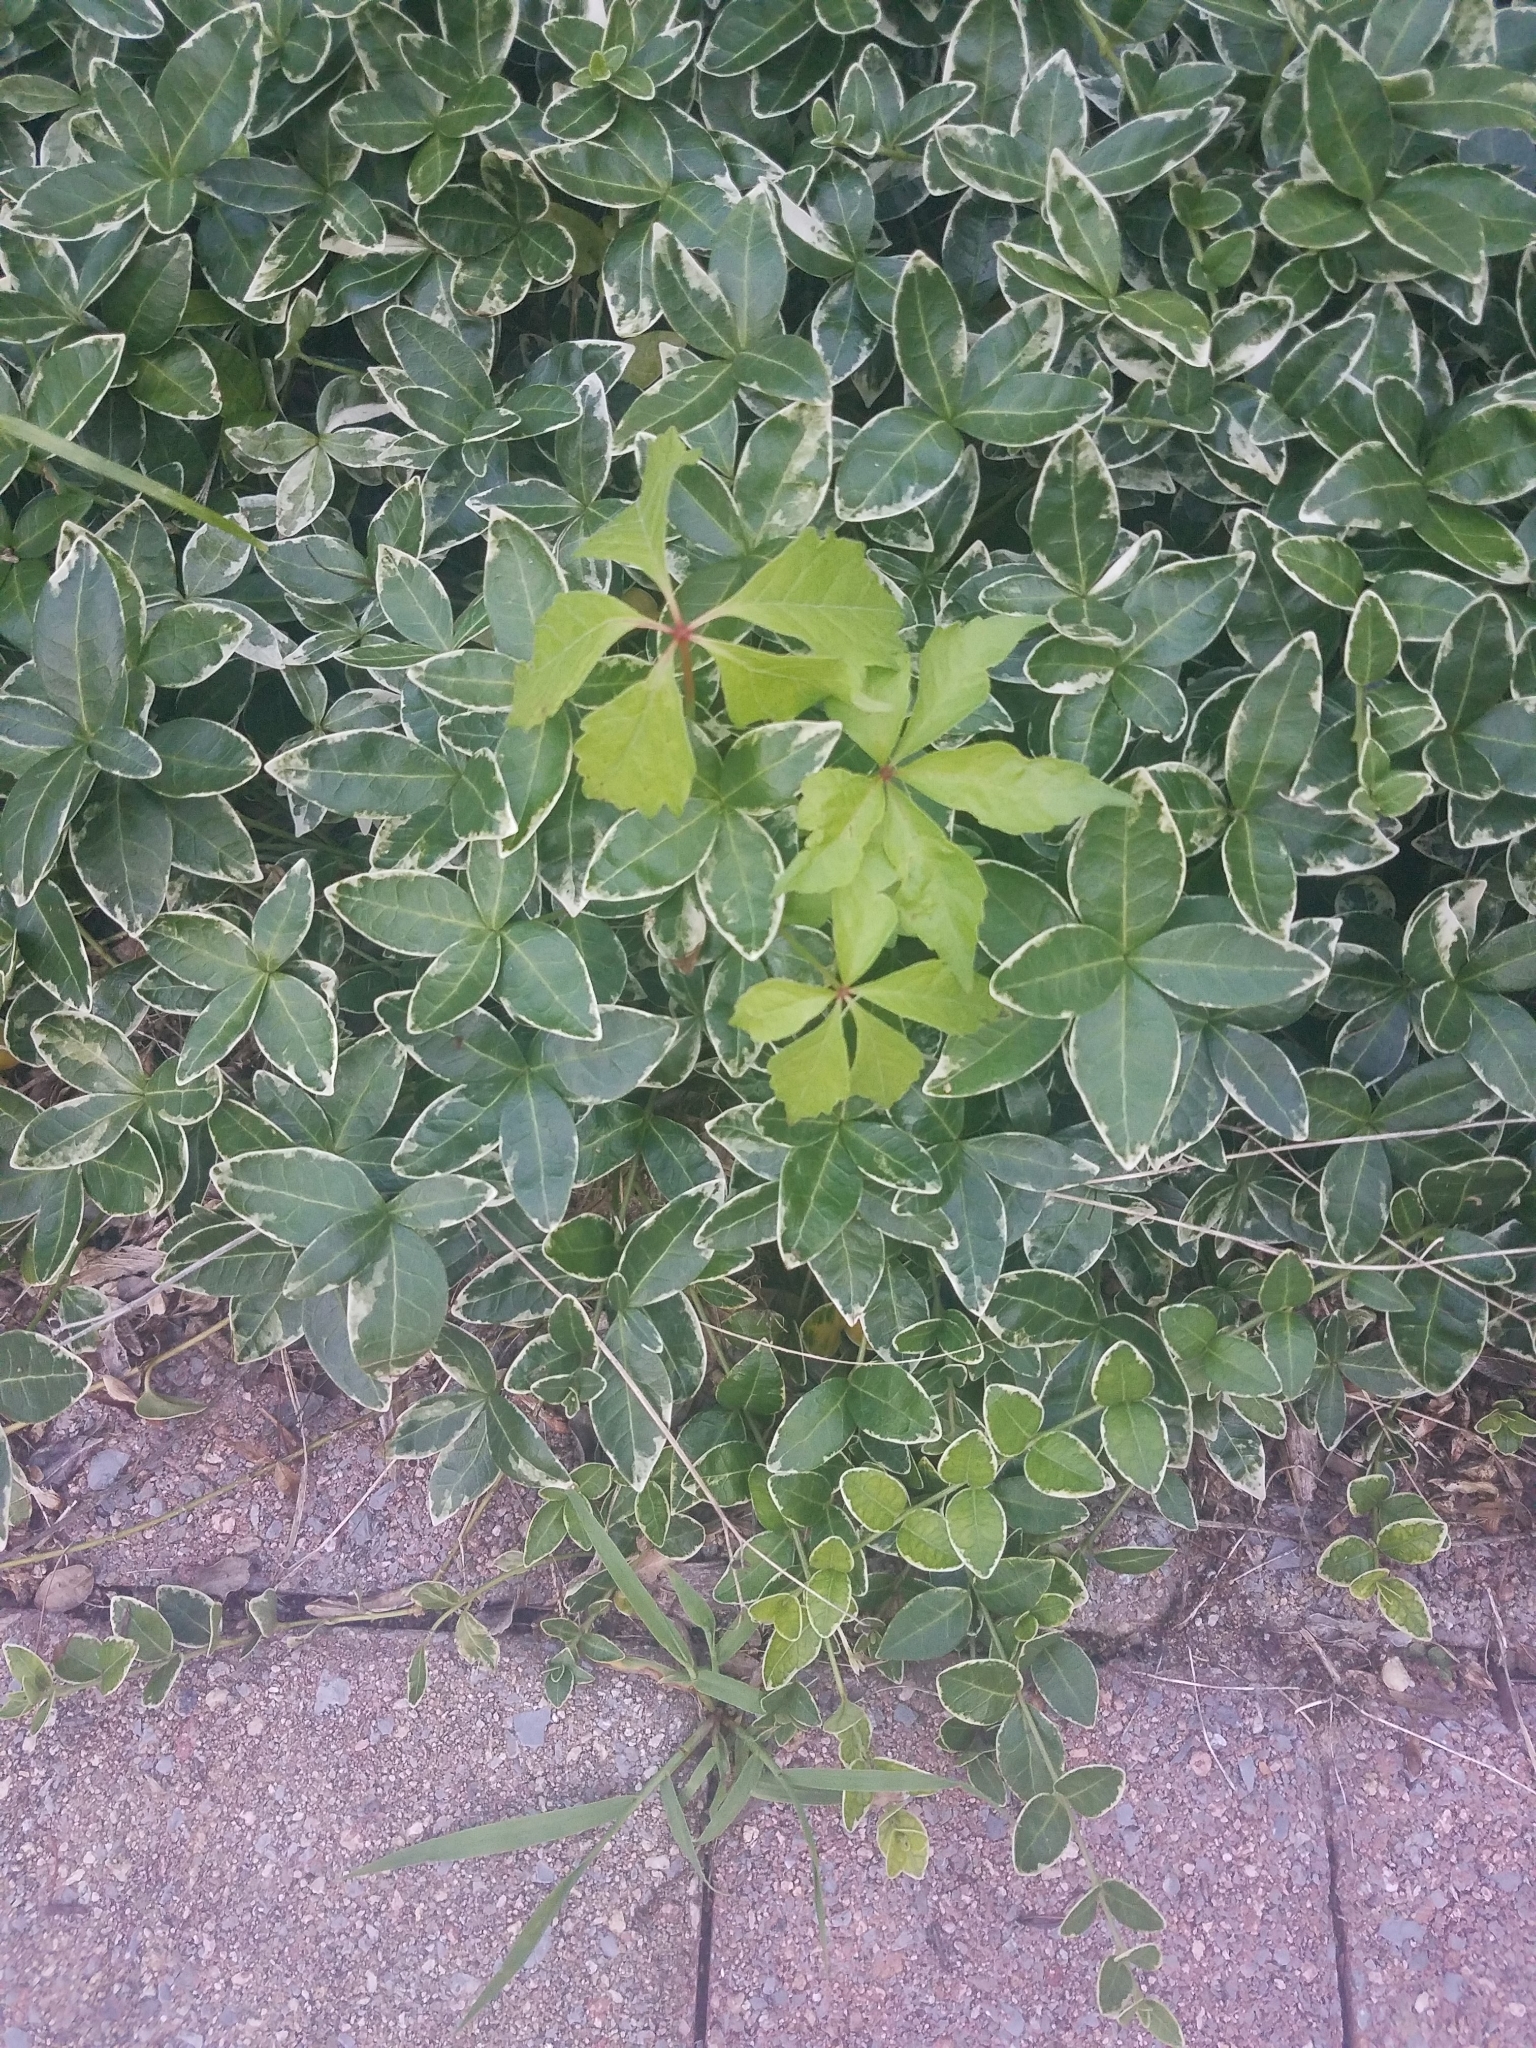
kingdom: Plantae
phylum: Tracheophyta
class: Magnoliopsida
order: Vitales
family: Vitaceae
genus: Parthenocissus
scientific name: Parthenocissus quinquefolia
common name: Virginia-creeper
